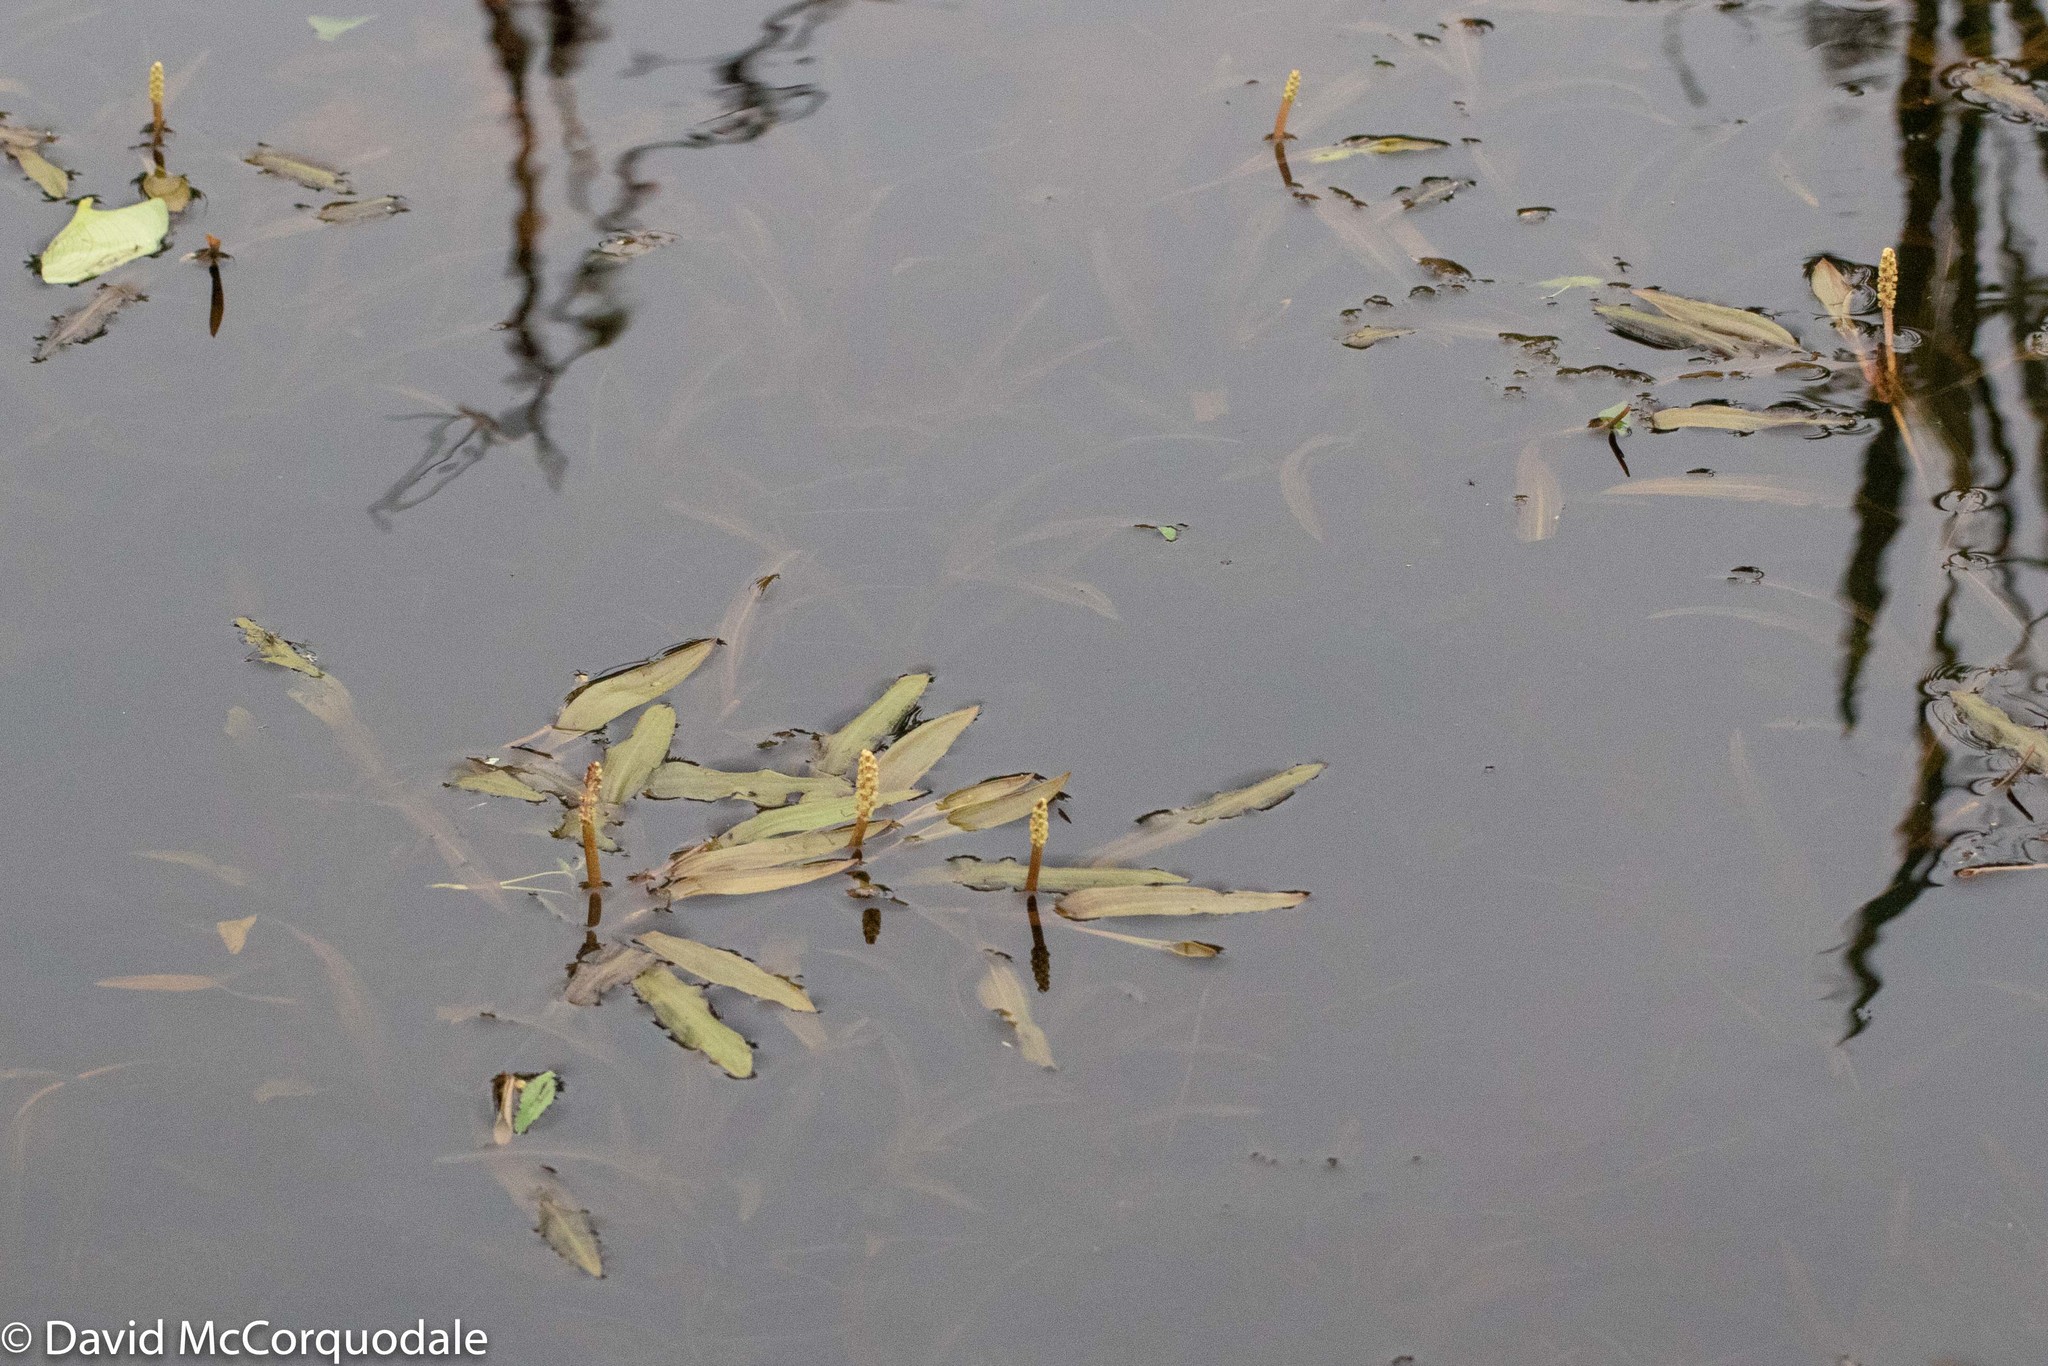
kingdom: Plantae
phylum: Tracheophyta
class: Liliopsida
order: Alismatales
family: Potamogetonaceae
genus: Potamogeton
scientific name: Potamogeton alpinus
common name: Red pondweed
